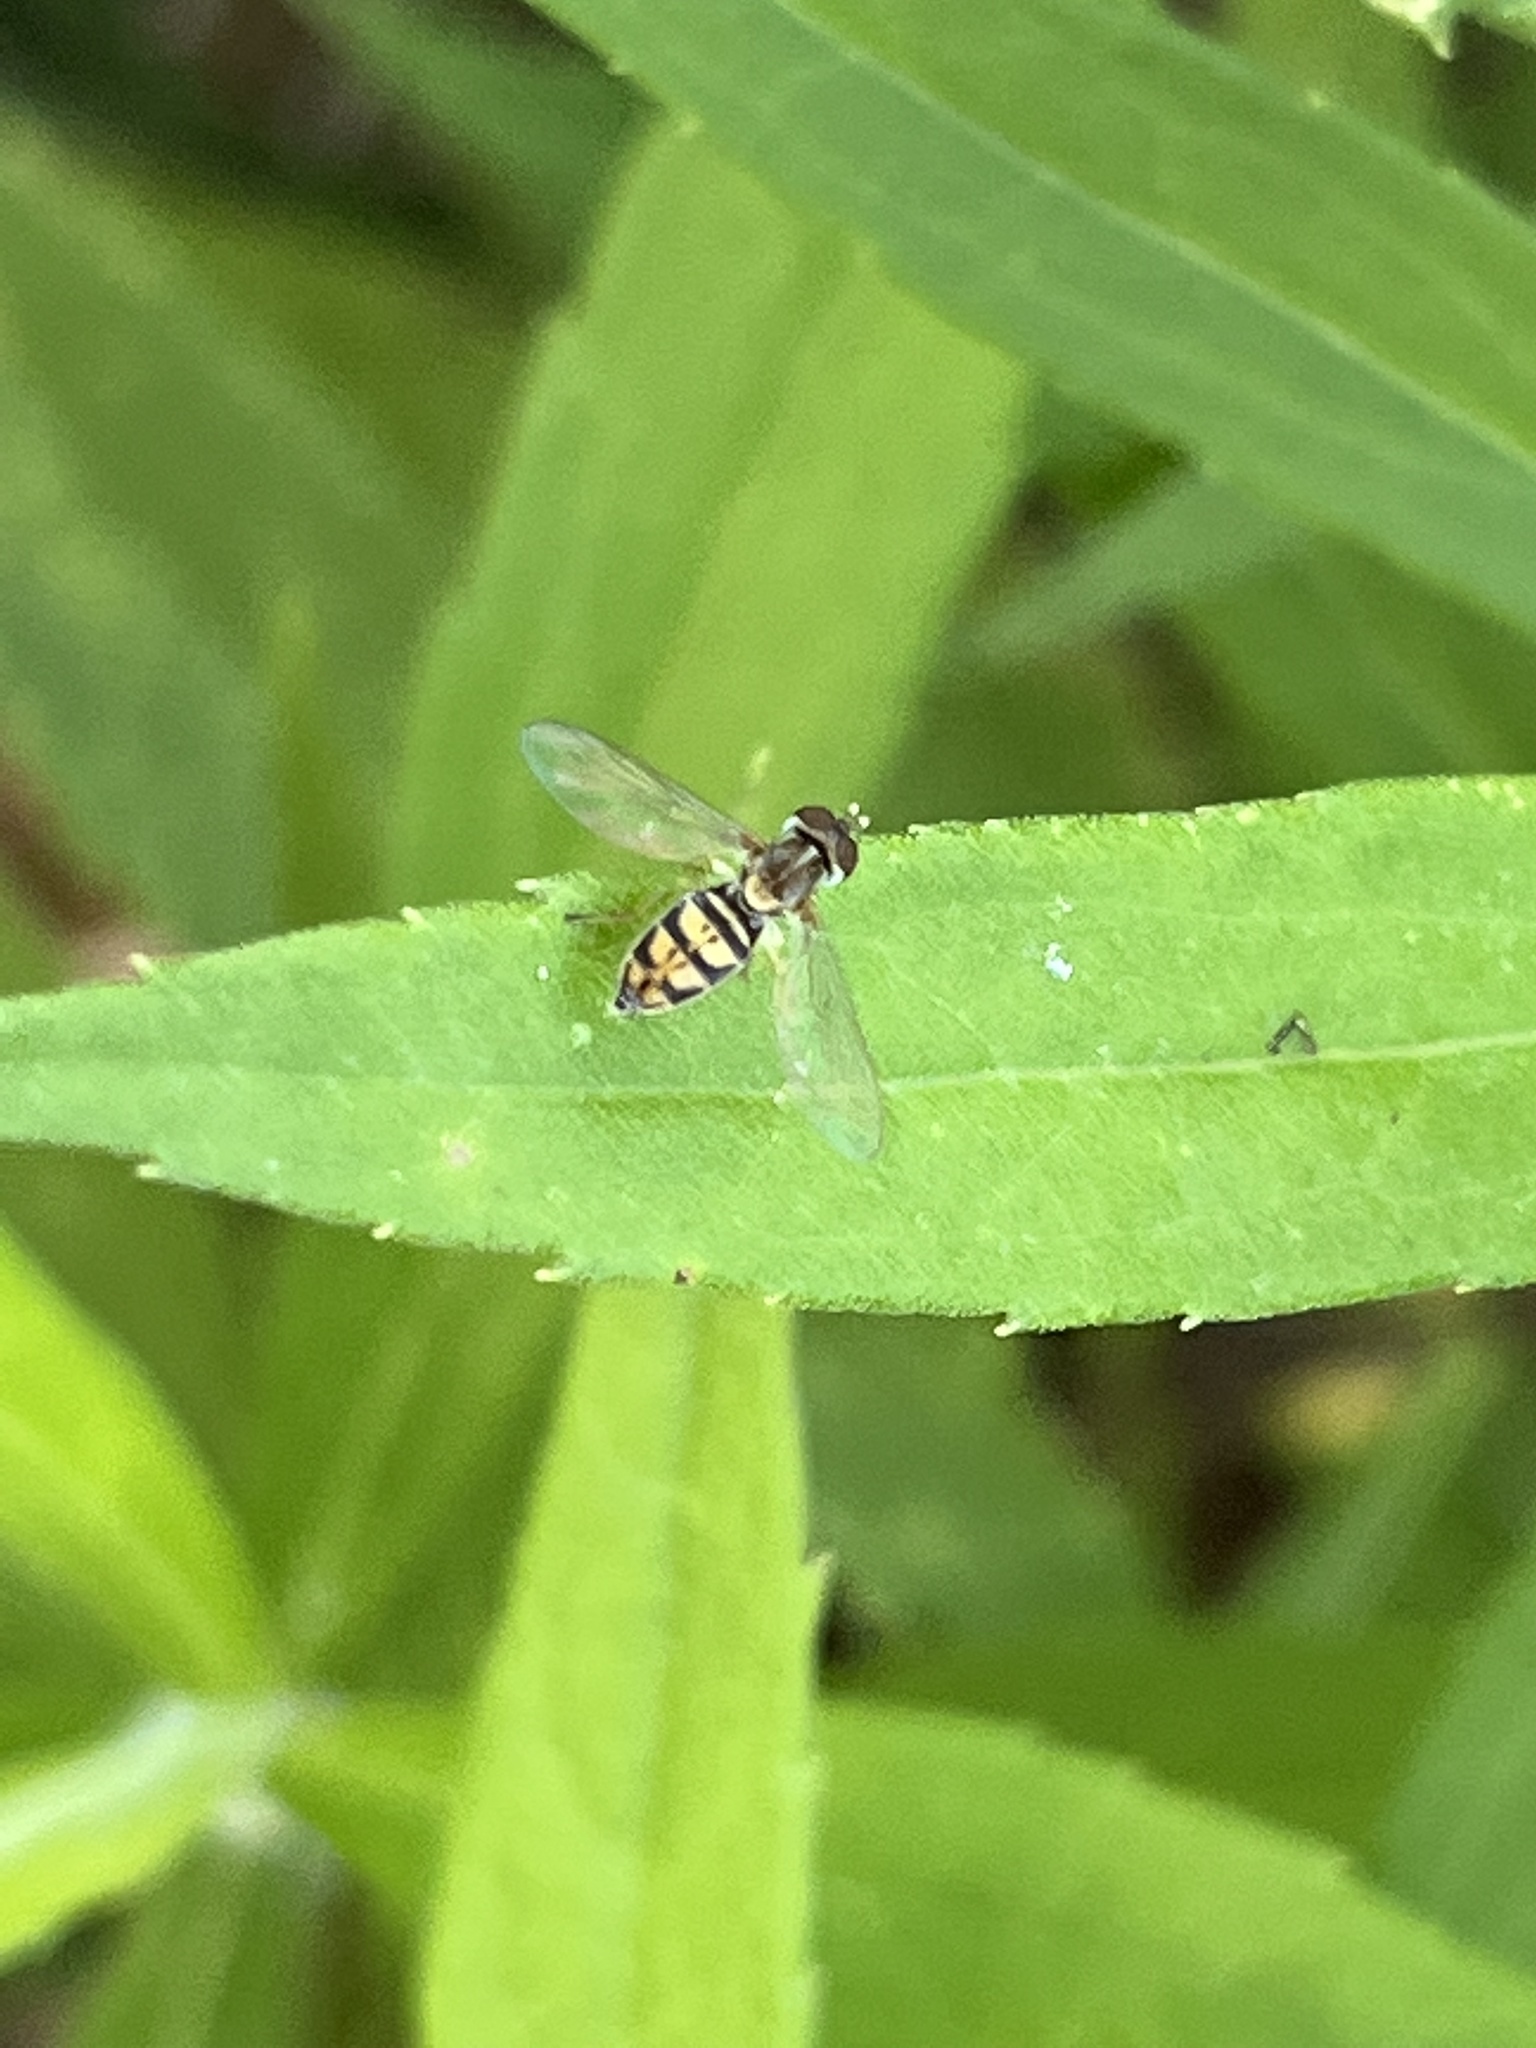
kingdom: Animalia
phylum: Arthropoda
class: Insecta
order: Diptera
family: Syrphidae
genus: Toxomerus
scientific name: Toxomerus marginatus
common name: Syrphid fly
